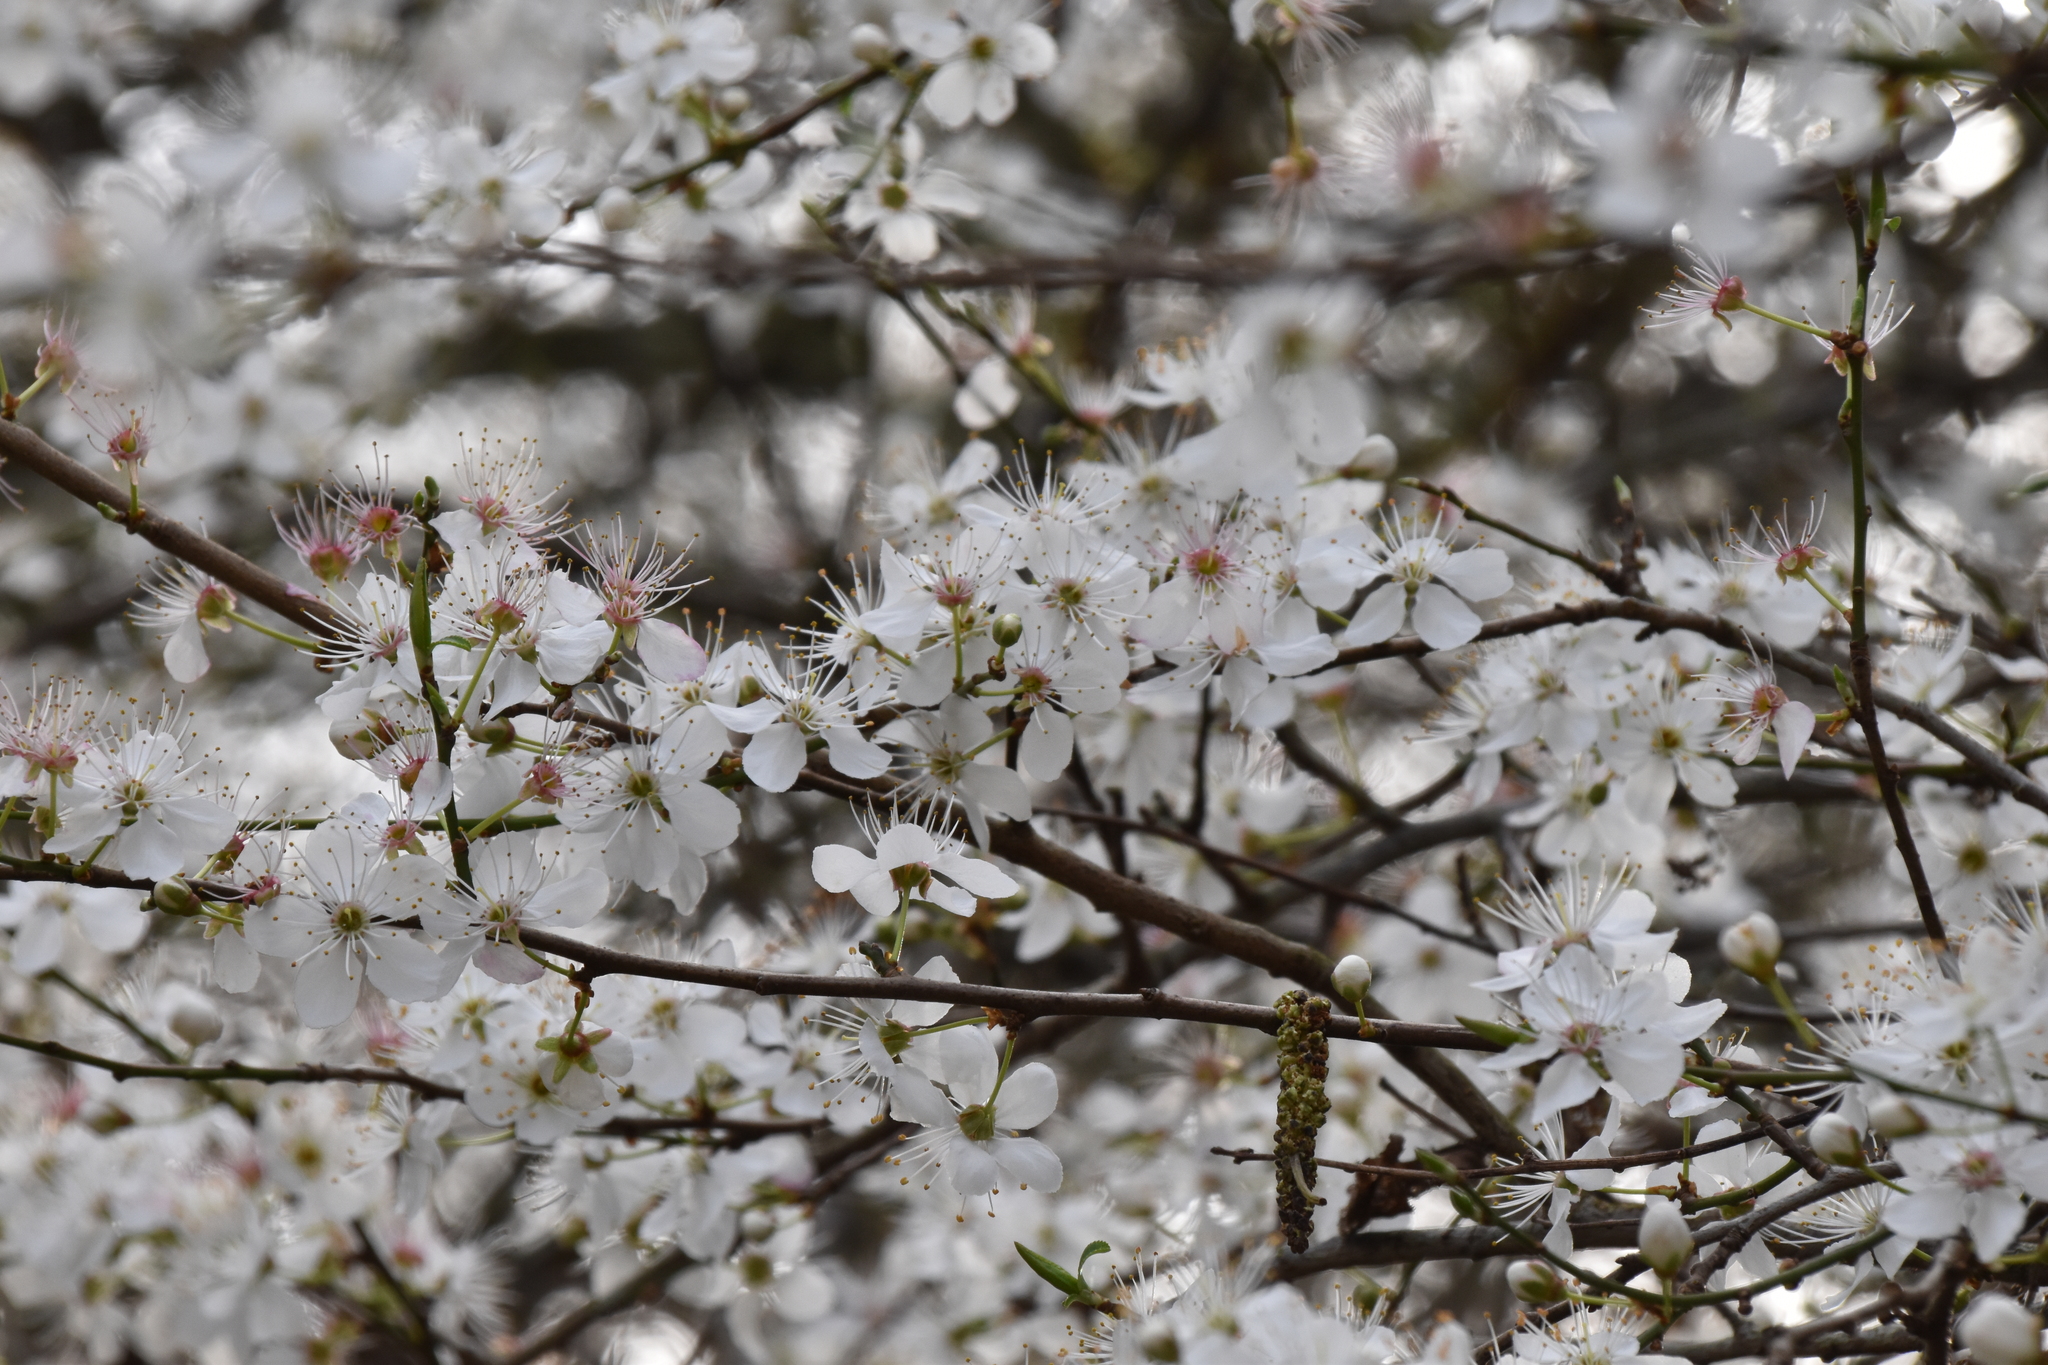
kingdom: Plantae
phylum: Tracheophyta
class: Magnoliopsida
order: Rosales
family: Rosaceae
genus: Prunus
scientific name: Prunus cerasifera
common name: Cherry plum
